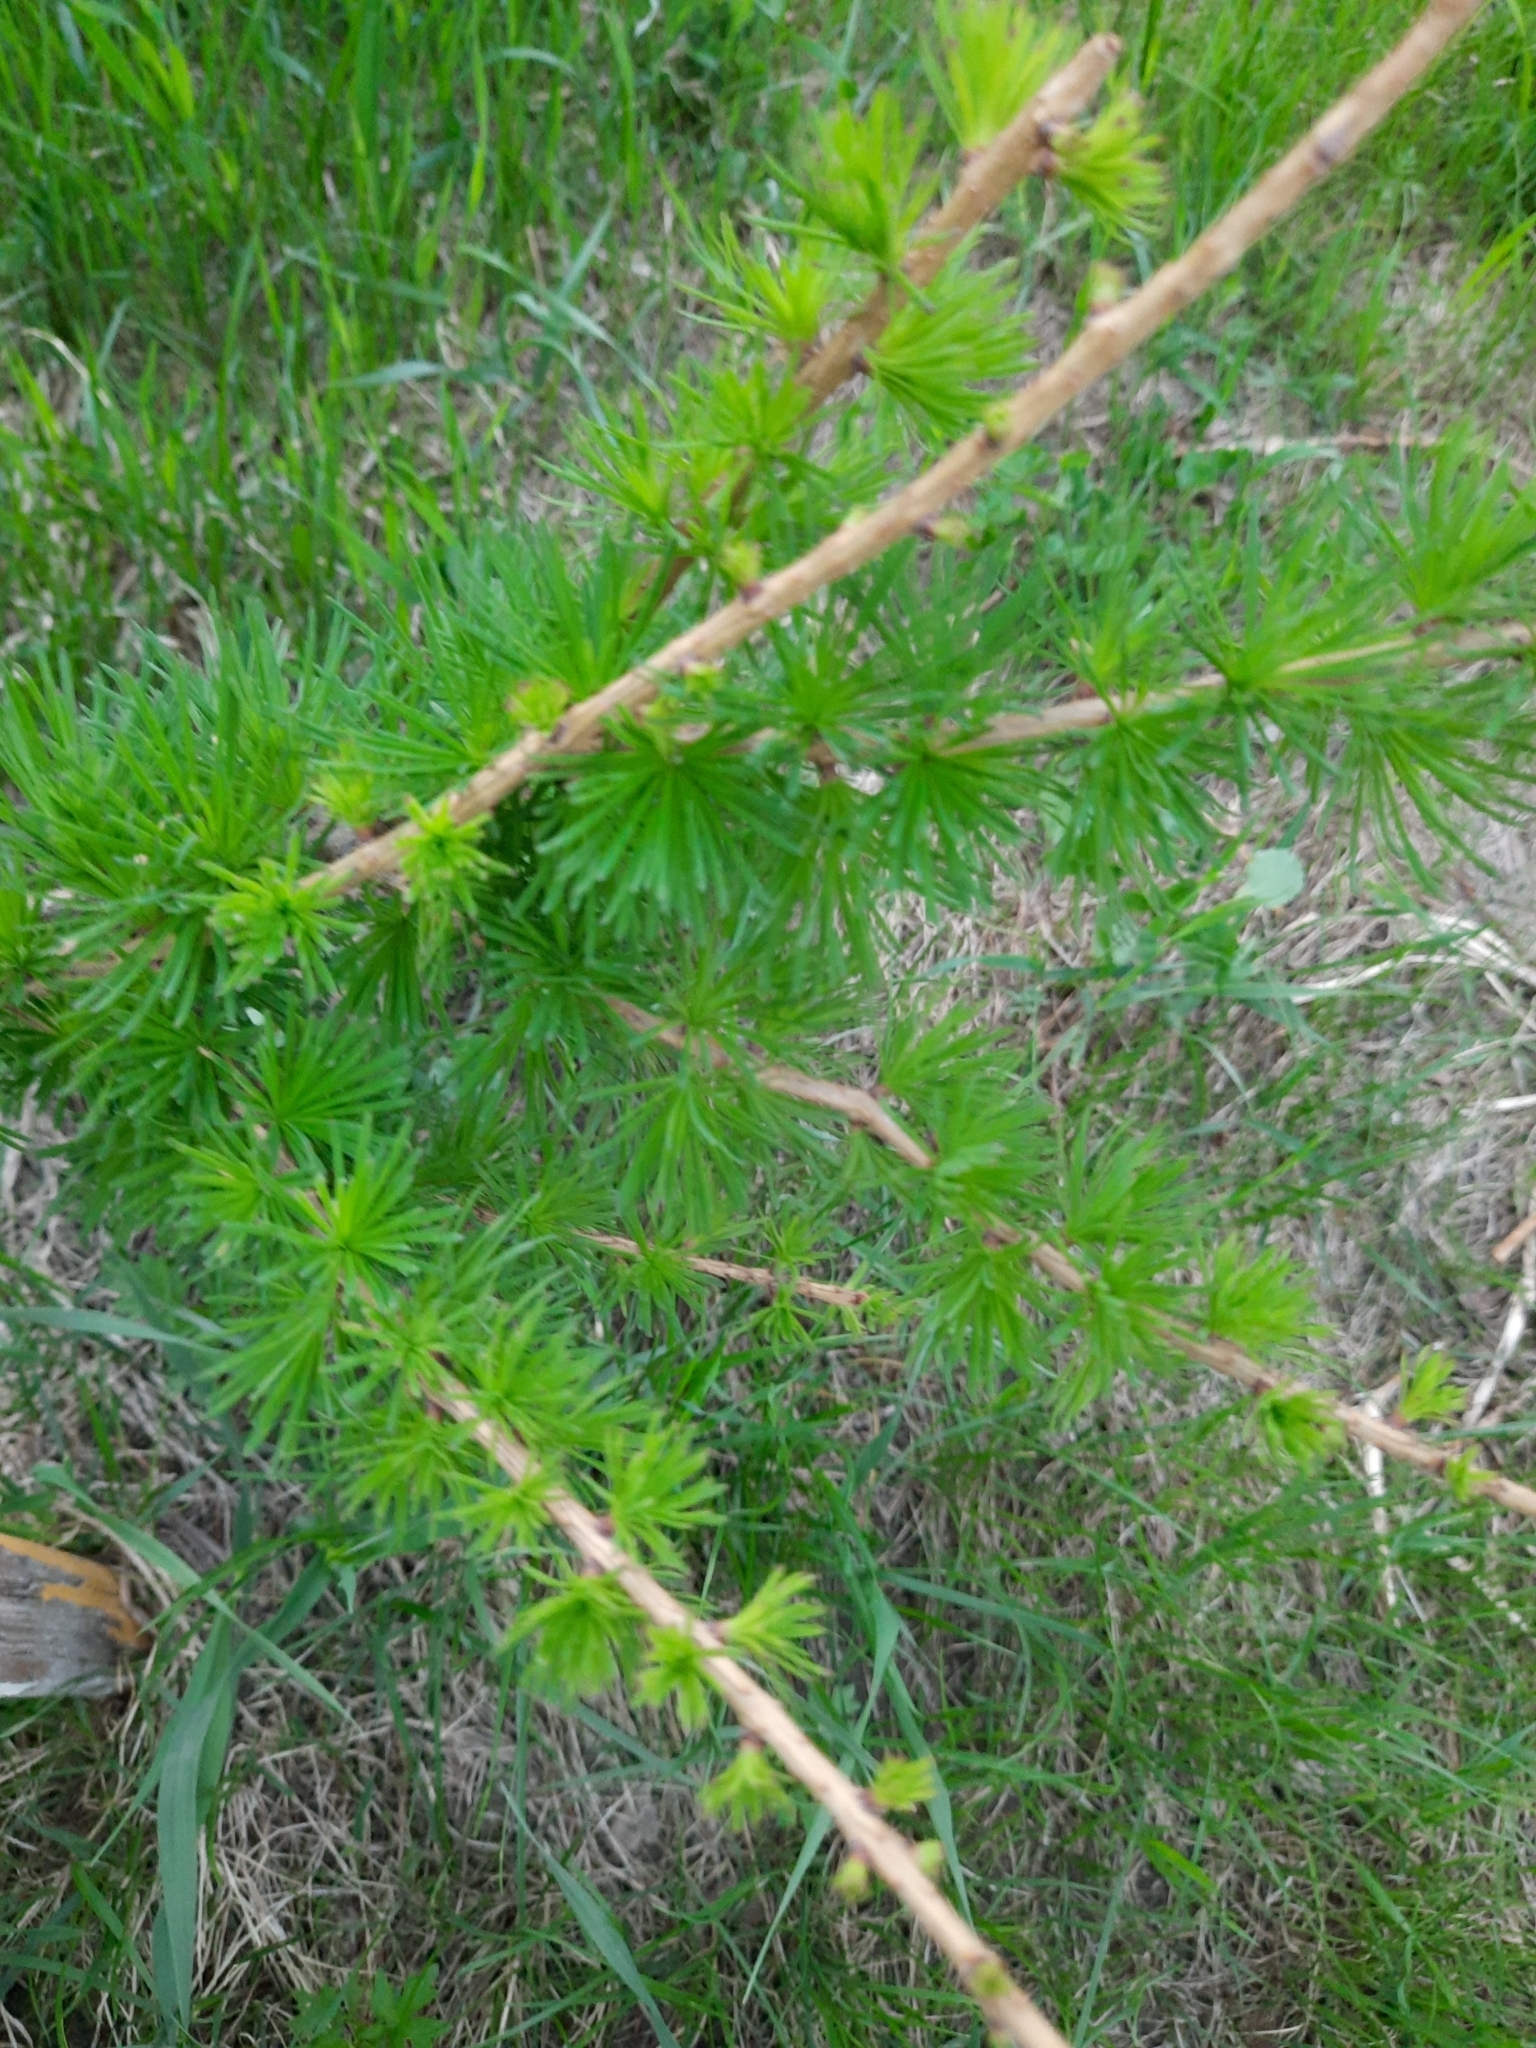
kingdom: Plantae
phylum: Tracheophyta
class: Pinopsida
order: Pinales
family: Pinaceae
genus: Larix
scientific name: Larix sibirica
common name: Siberian larch
